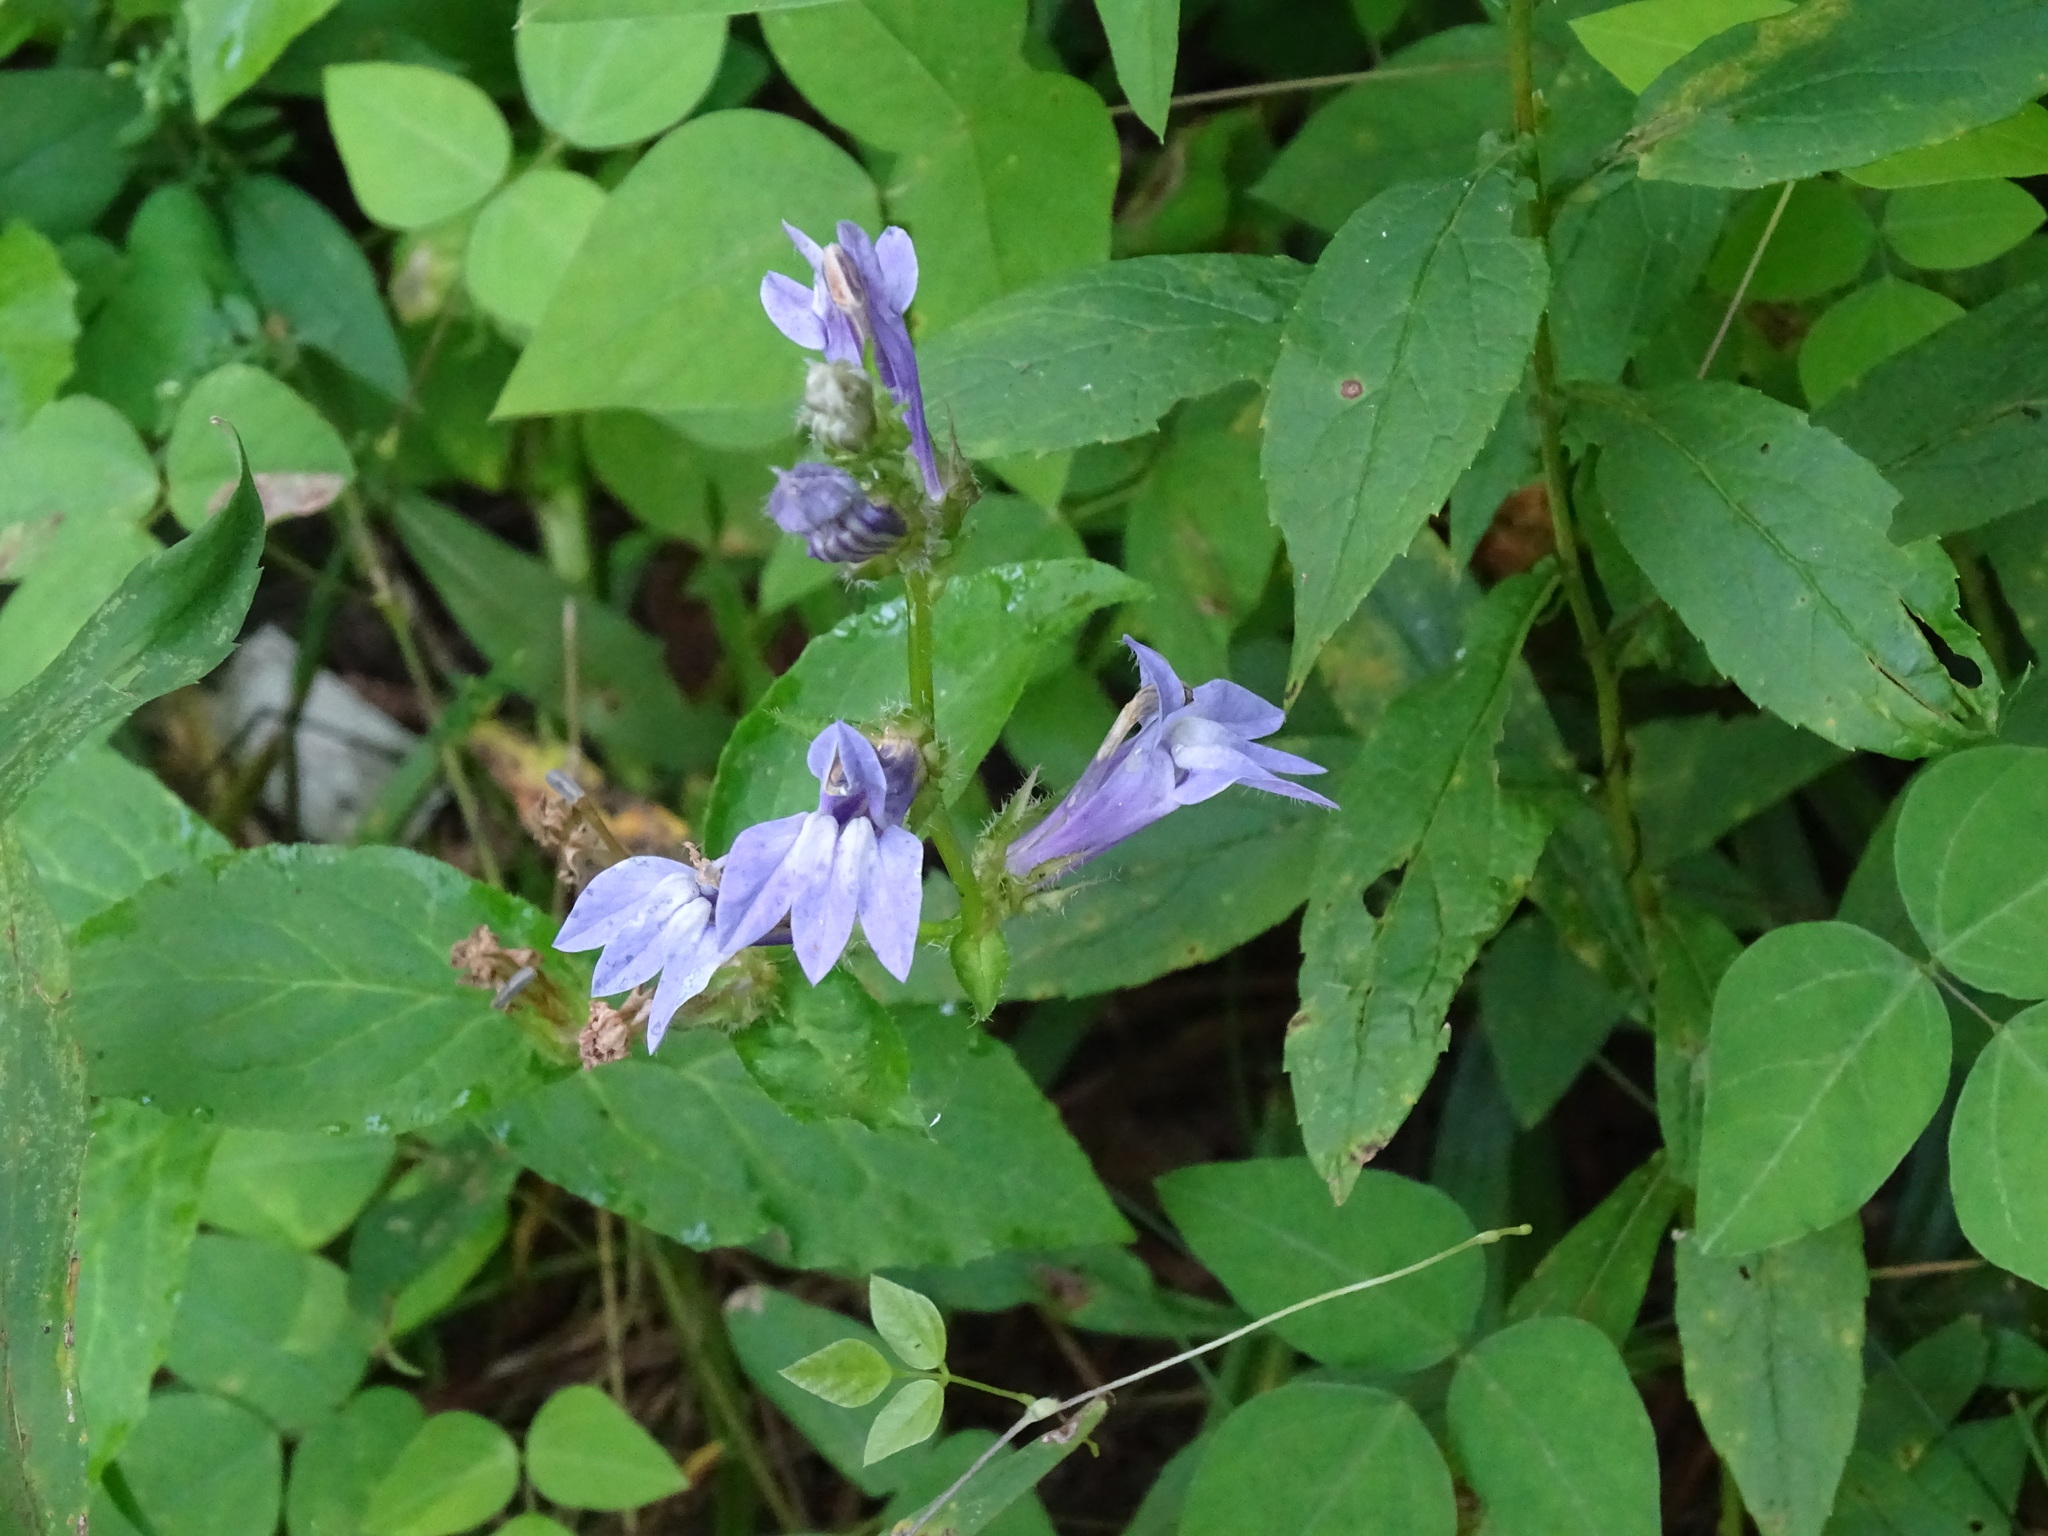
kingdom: Plantae
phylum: Tracheophyta
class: Magnoliopsida
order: Asterales
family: Campanulaceae
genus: Lobelia
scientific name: Lobelia siphilitica
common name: Great lobelia
